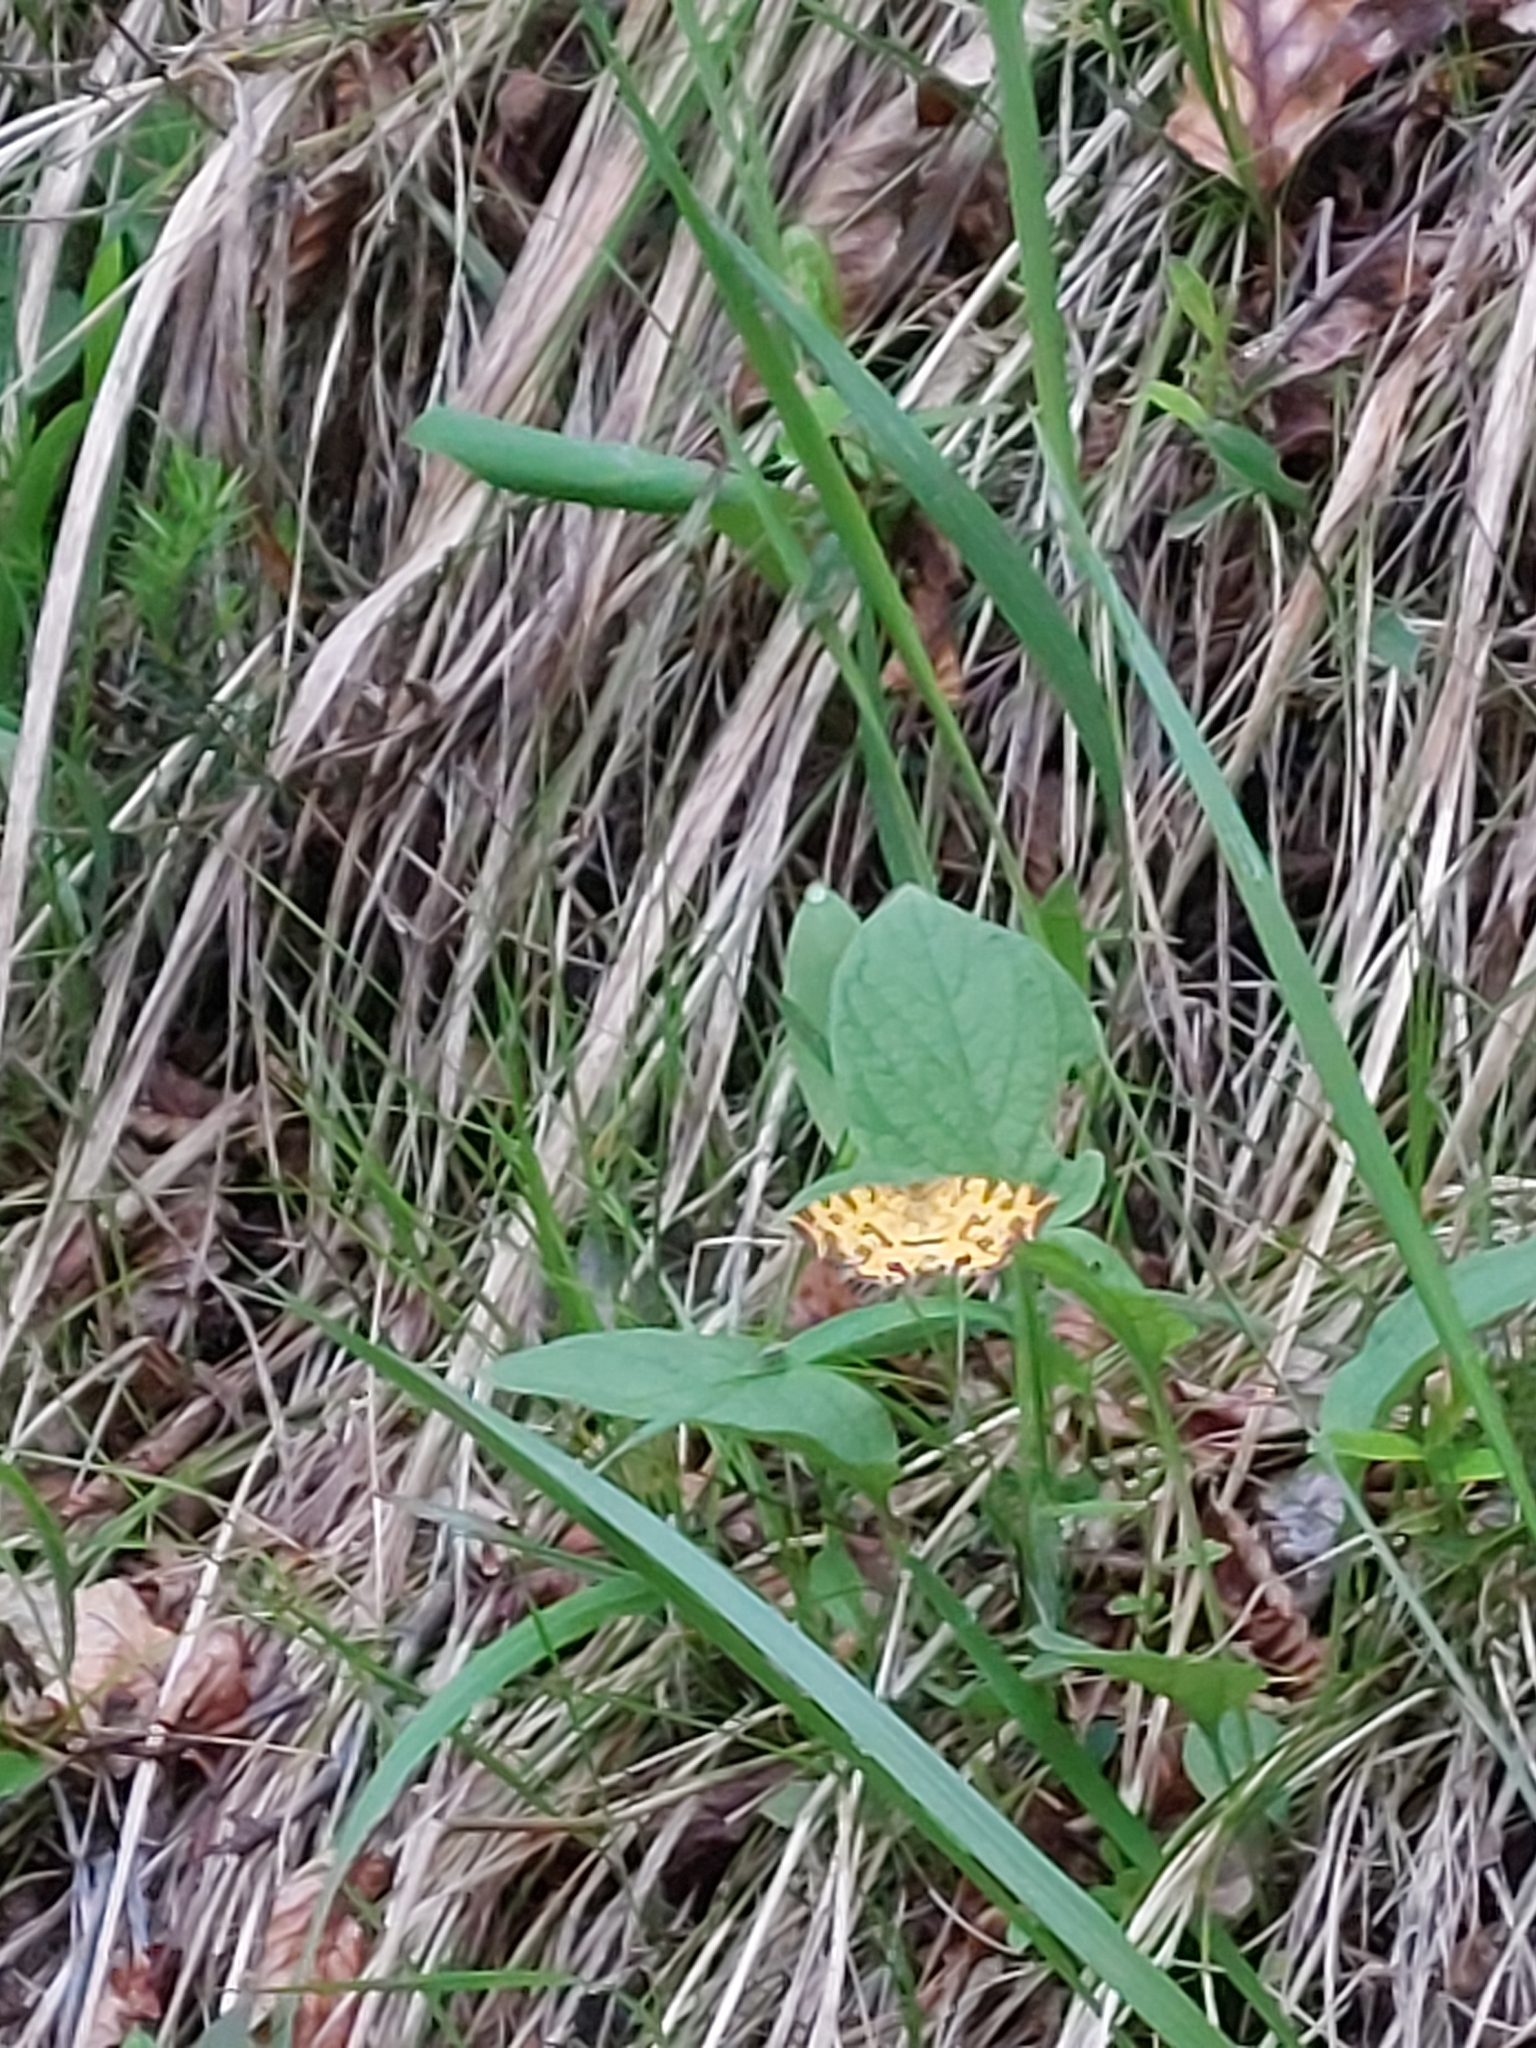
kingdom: Animalia
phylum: Arthropoda
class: Insecta
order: Lepidoptera
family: Geometridae
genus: Pseudopanthera
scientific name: Pseudopanthera macularia
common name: Speckled yellow
